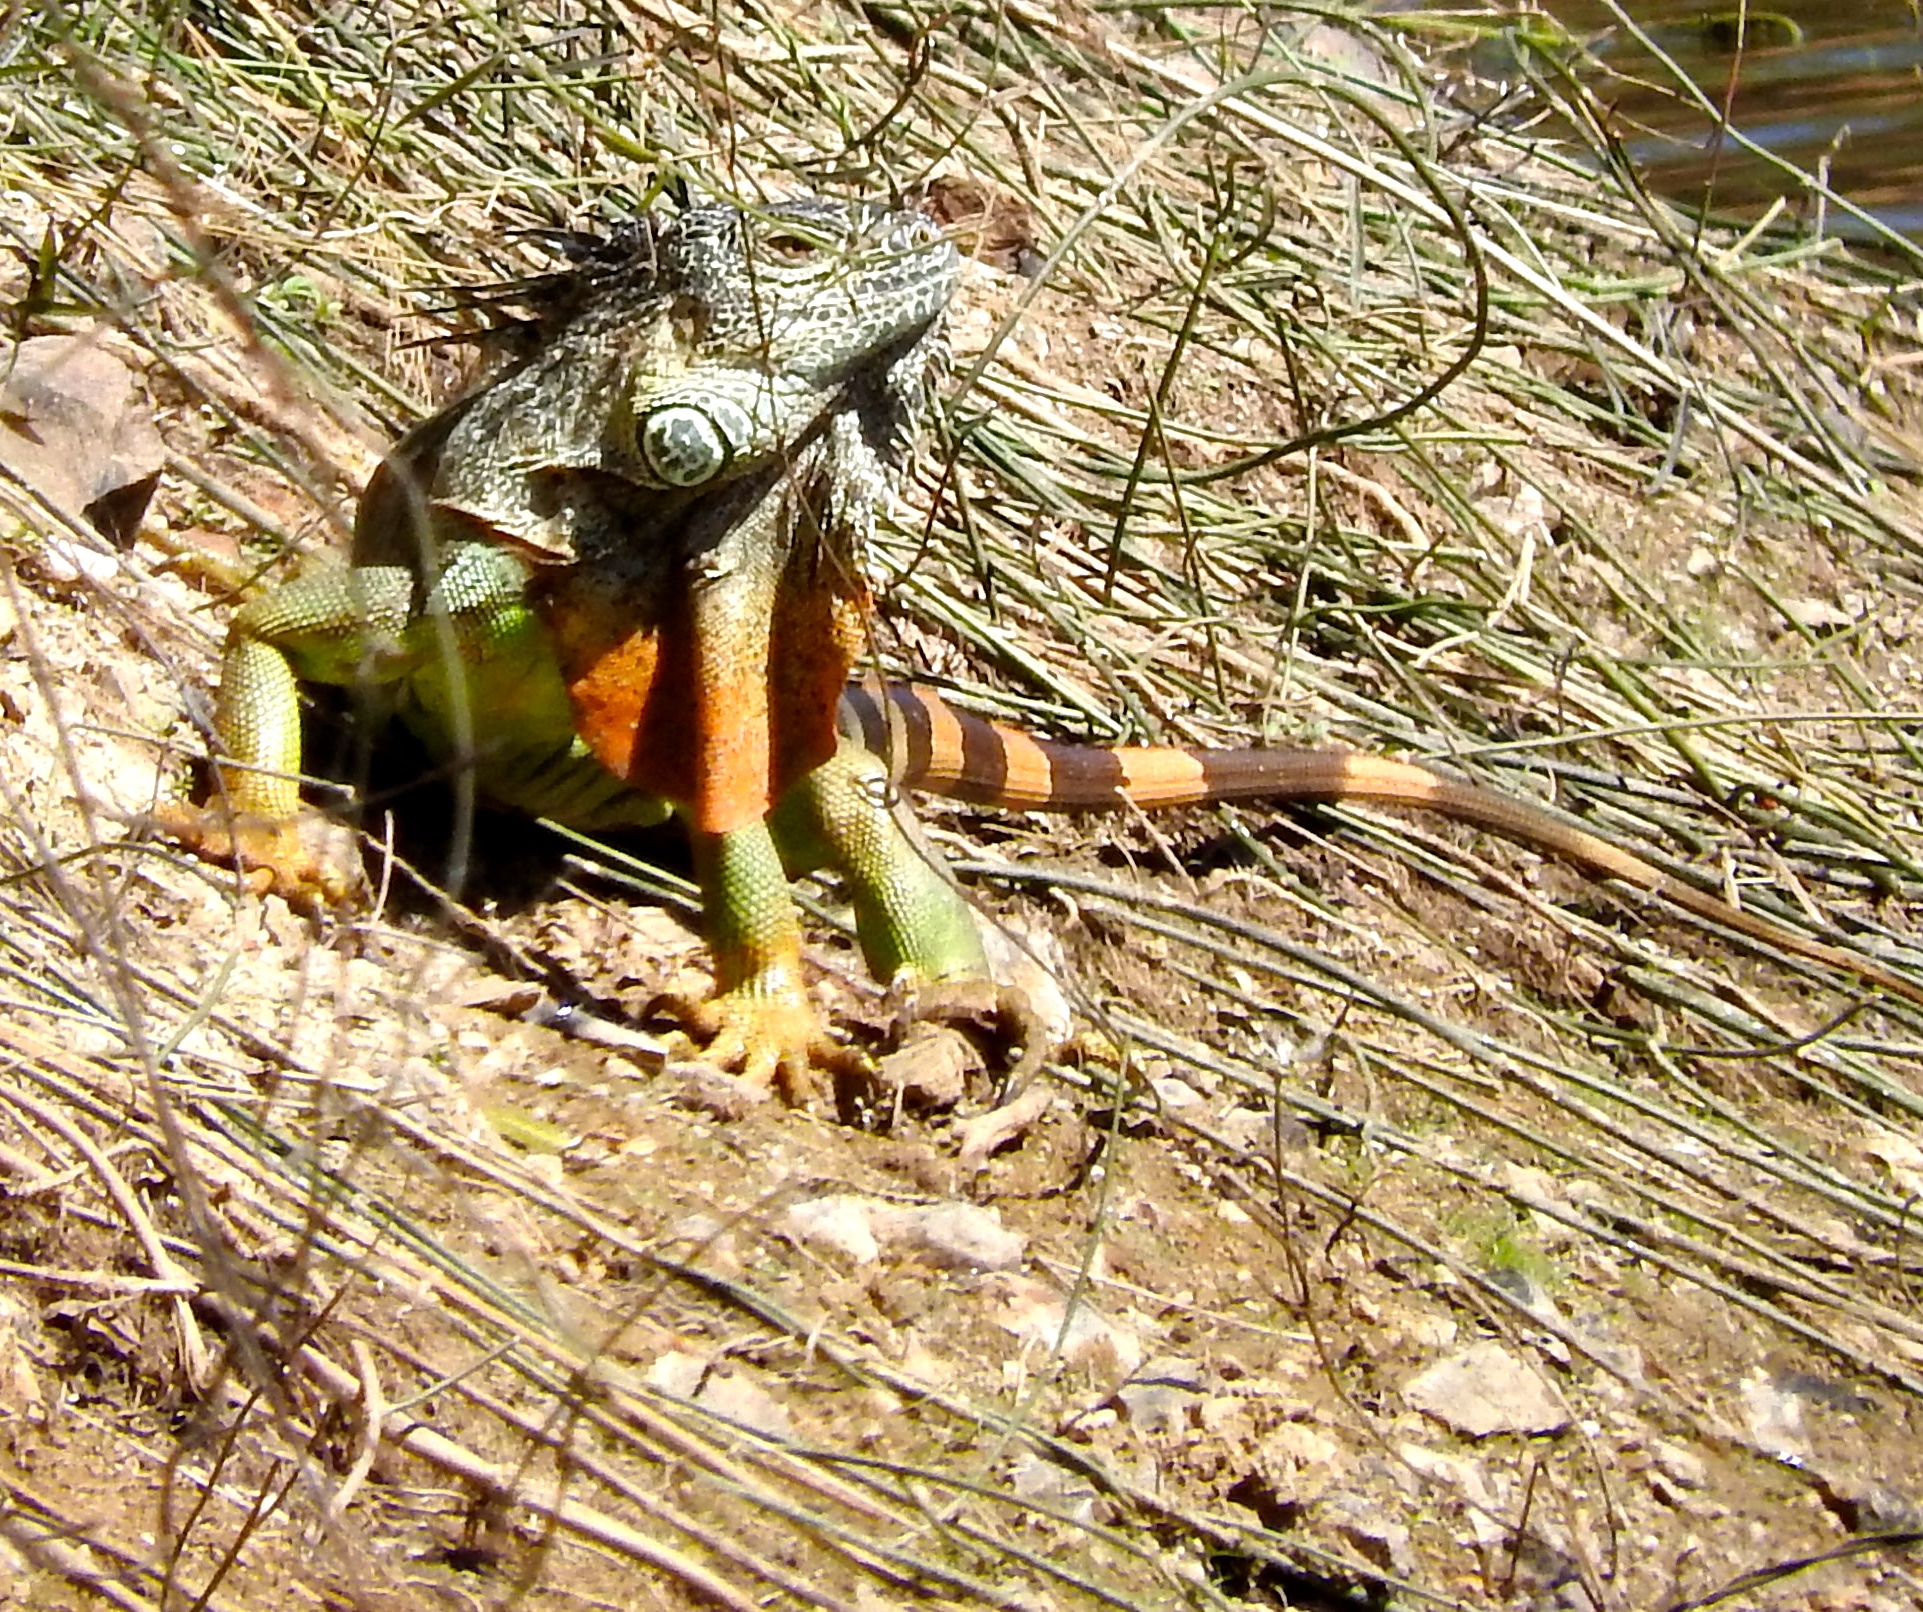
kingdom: Animalia
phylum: Chordata
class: Squamata
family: Iguanidae
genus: Iguana
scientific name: Iguana iguana
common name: Green iguana
